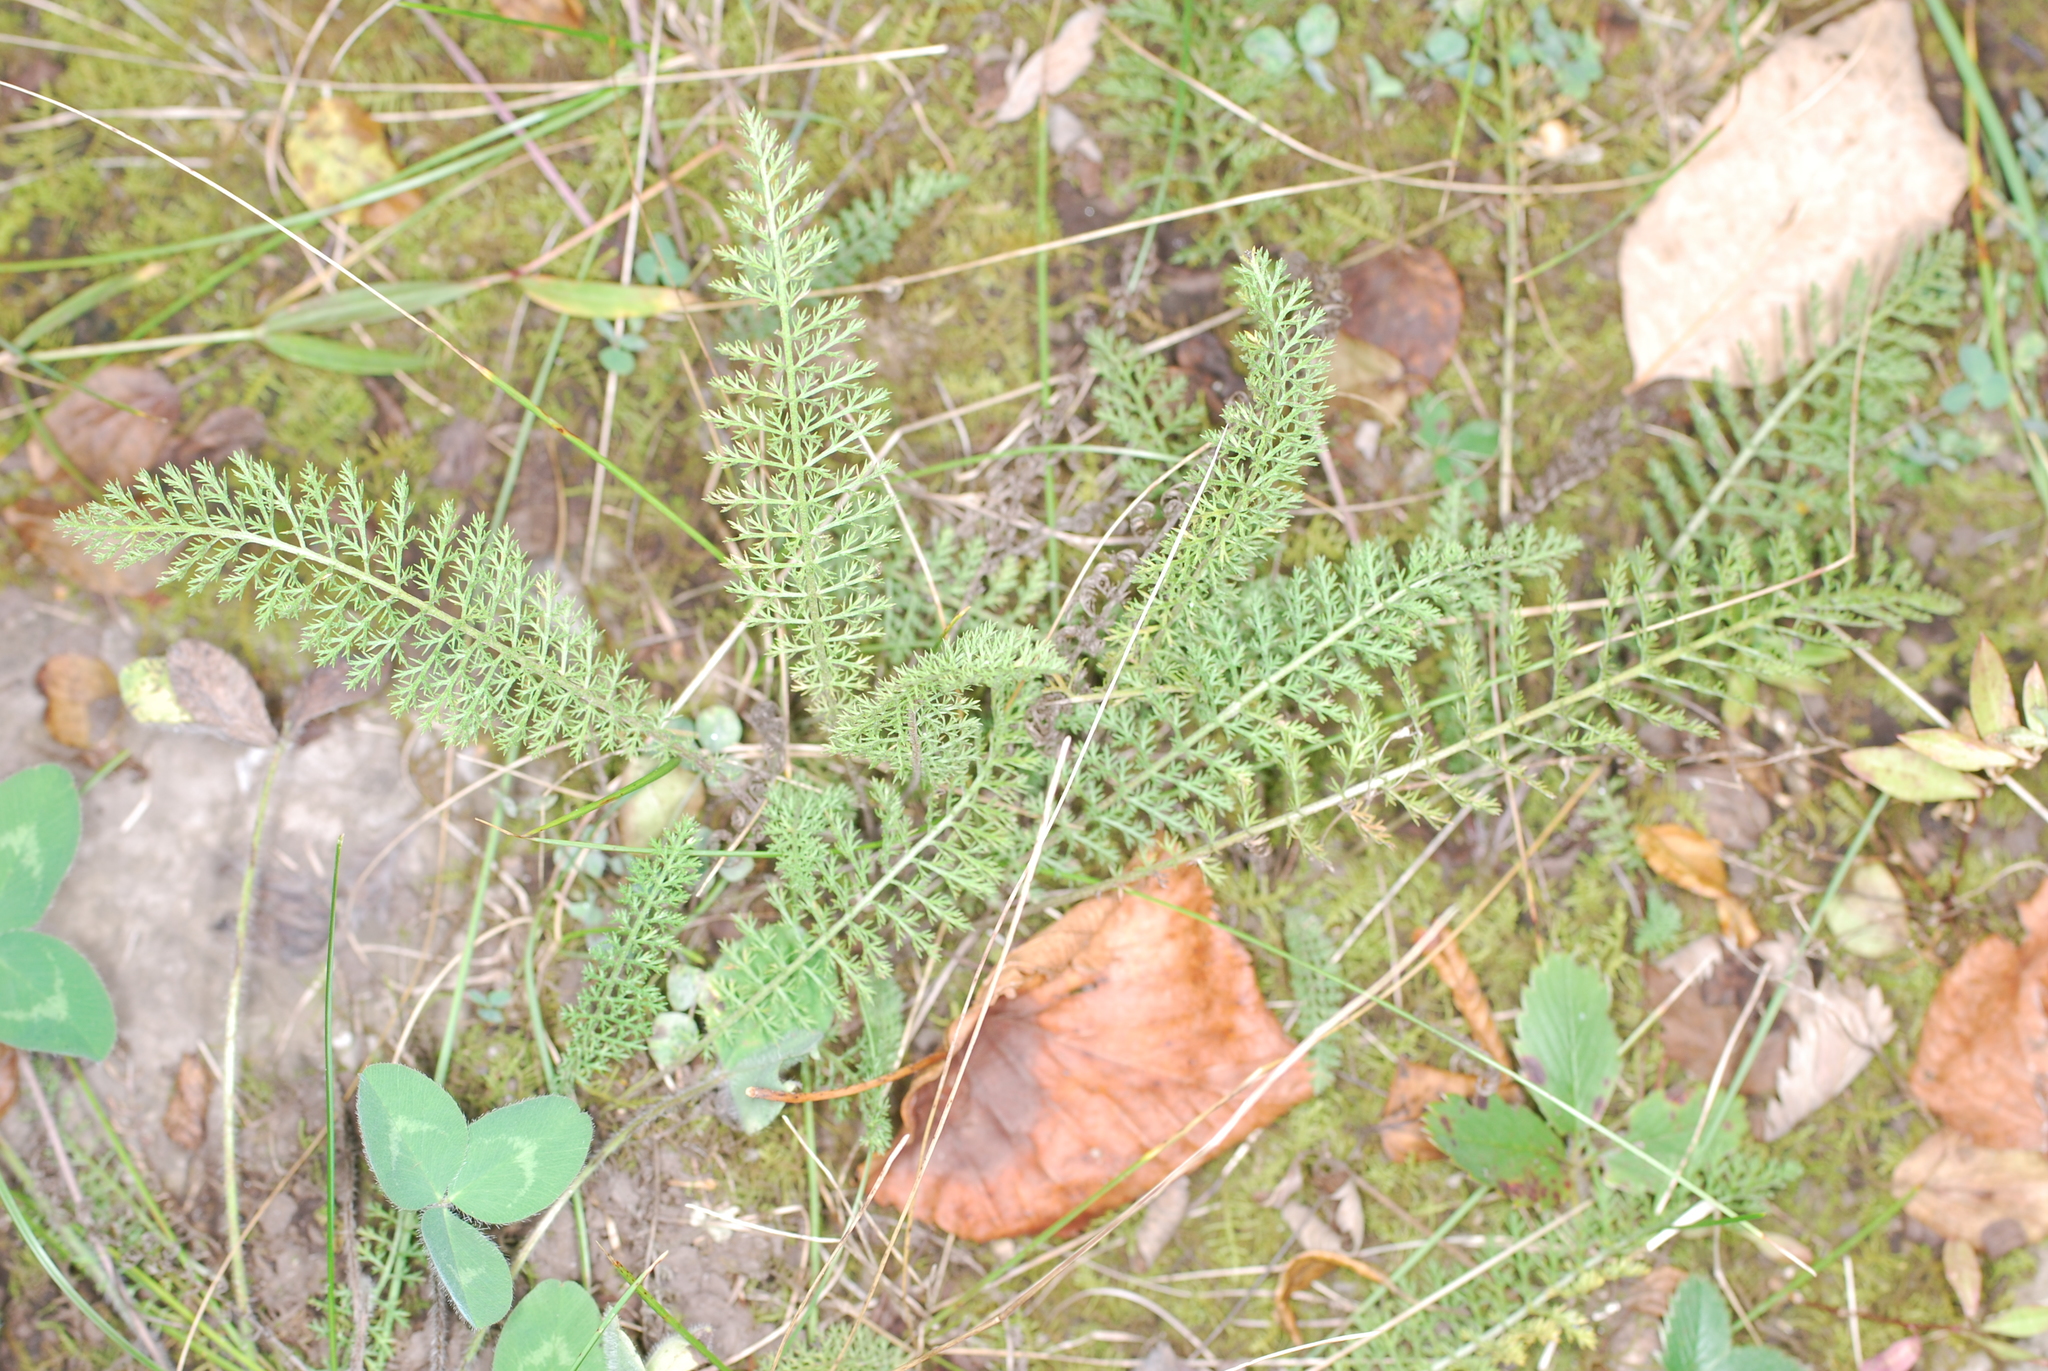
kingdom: Plantae
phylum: Tracheophyta
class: Magnoliopsida
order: Asterales
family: Asteraceae
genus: Achillea
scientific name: Achillea millefolium
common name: Yarrow
